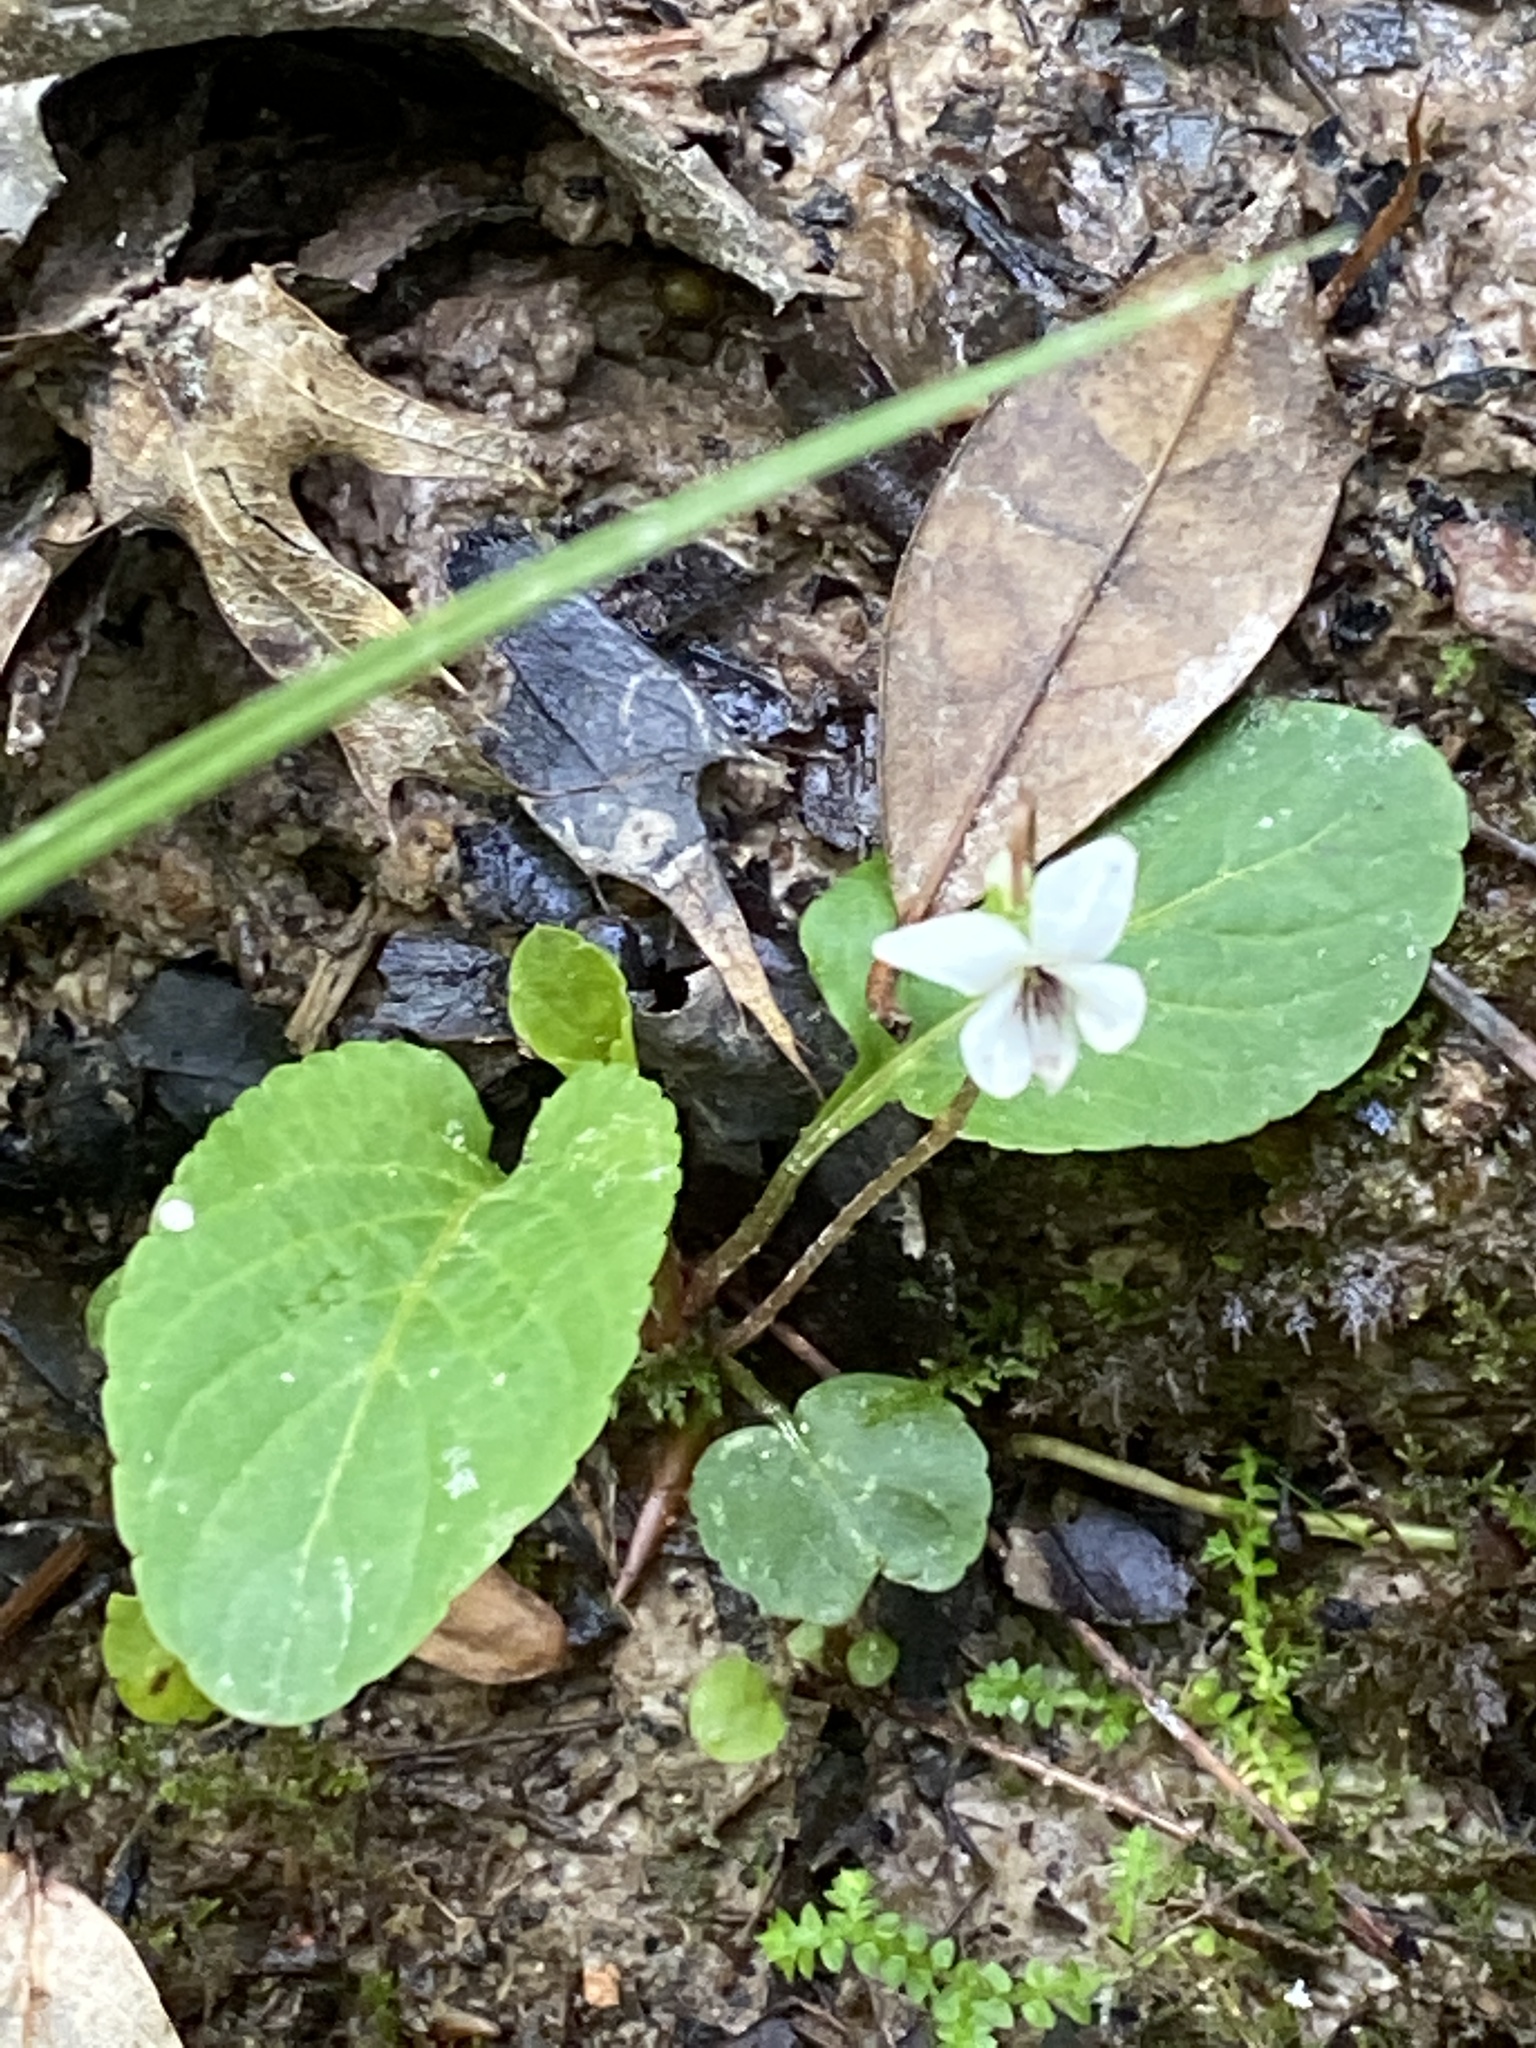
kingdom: Plantae
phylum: Tracheophyta
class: Magnoliopsida
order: Malpighiales
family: Violaceae
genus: Viola
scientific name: Viola primulifolia
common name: Primrose-leaf violet
